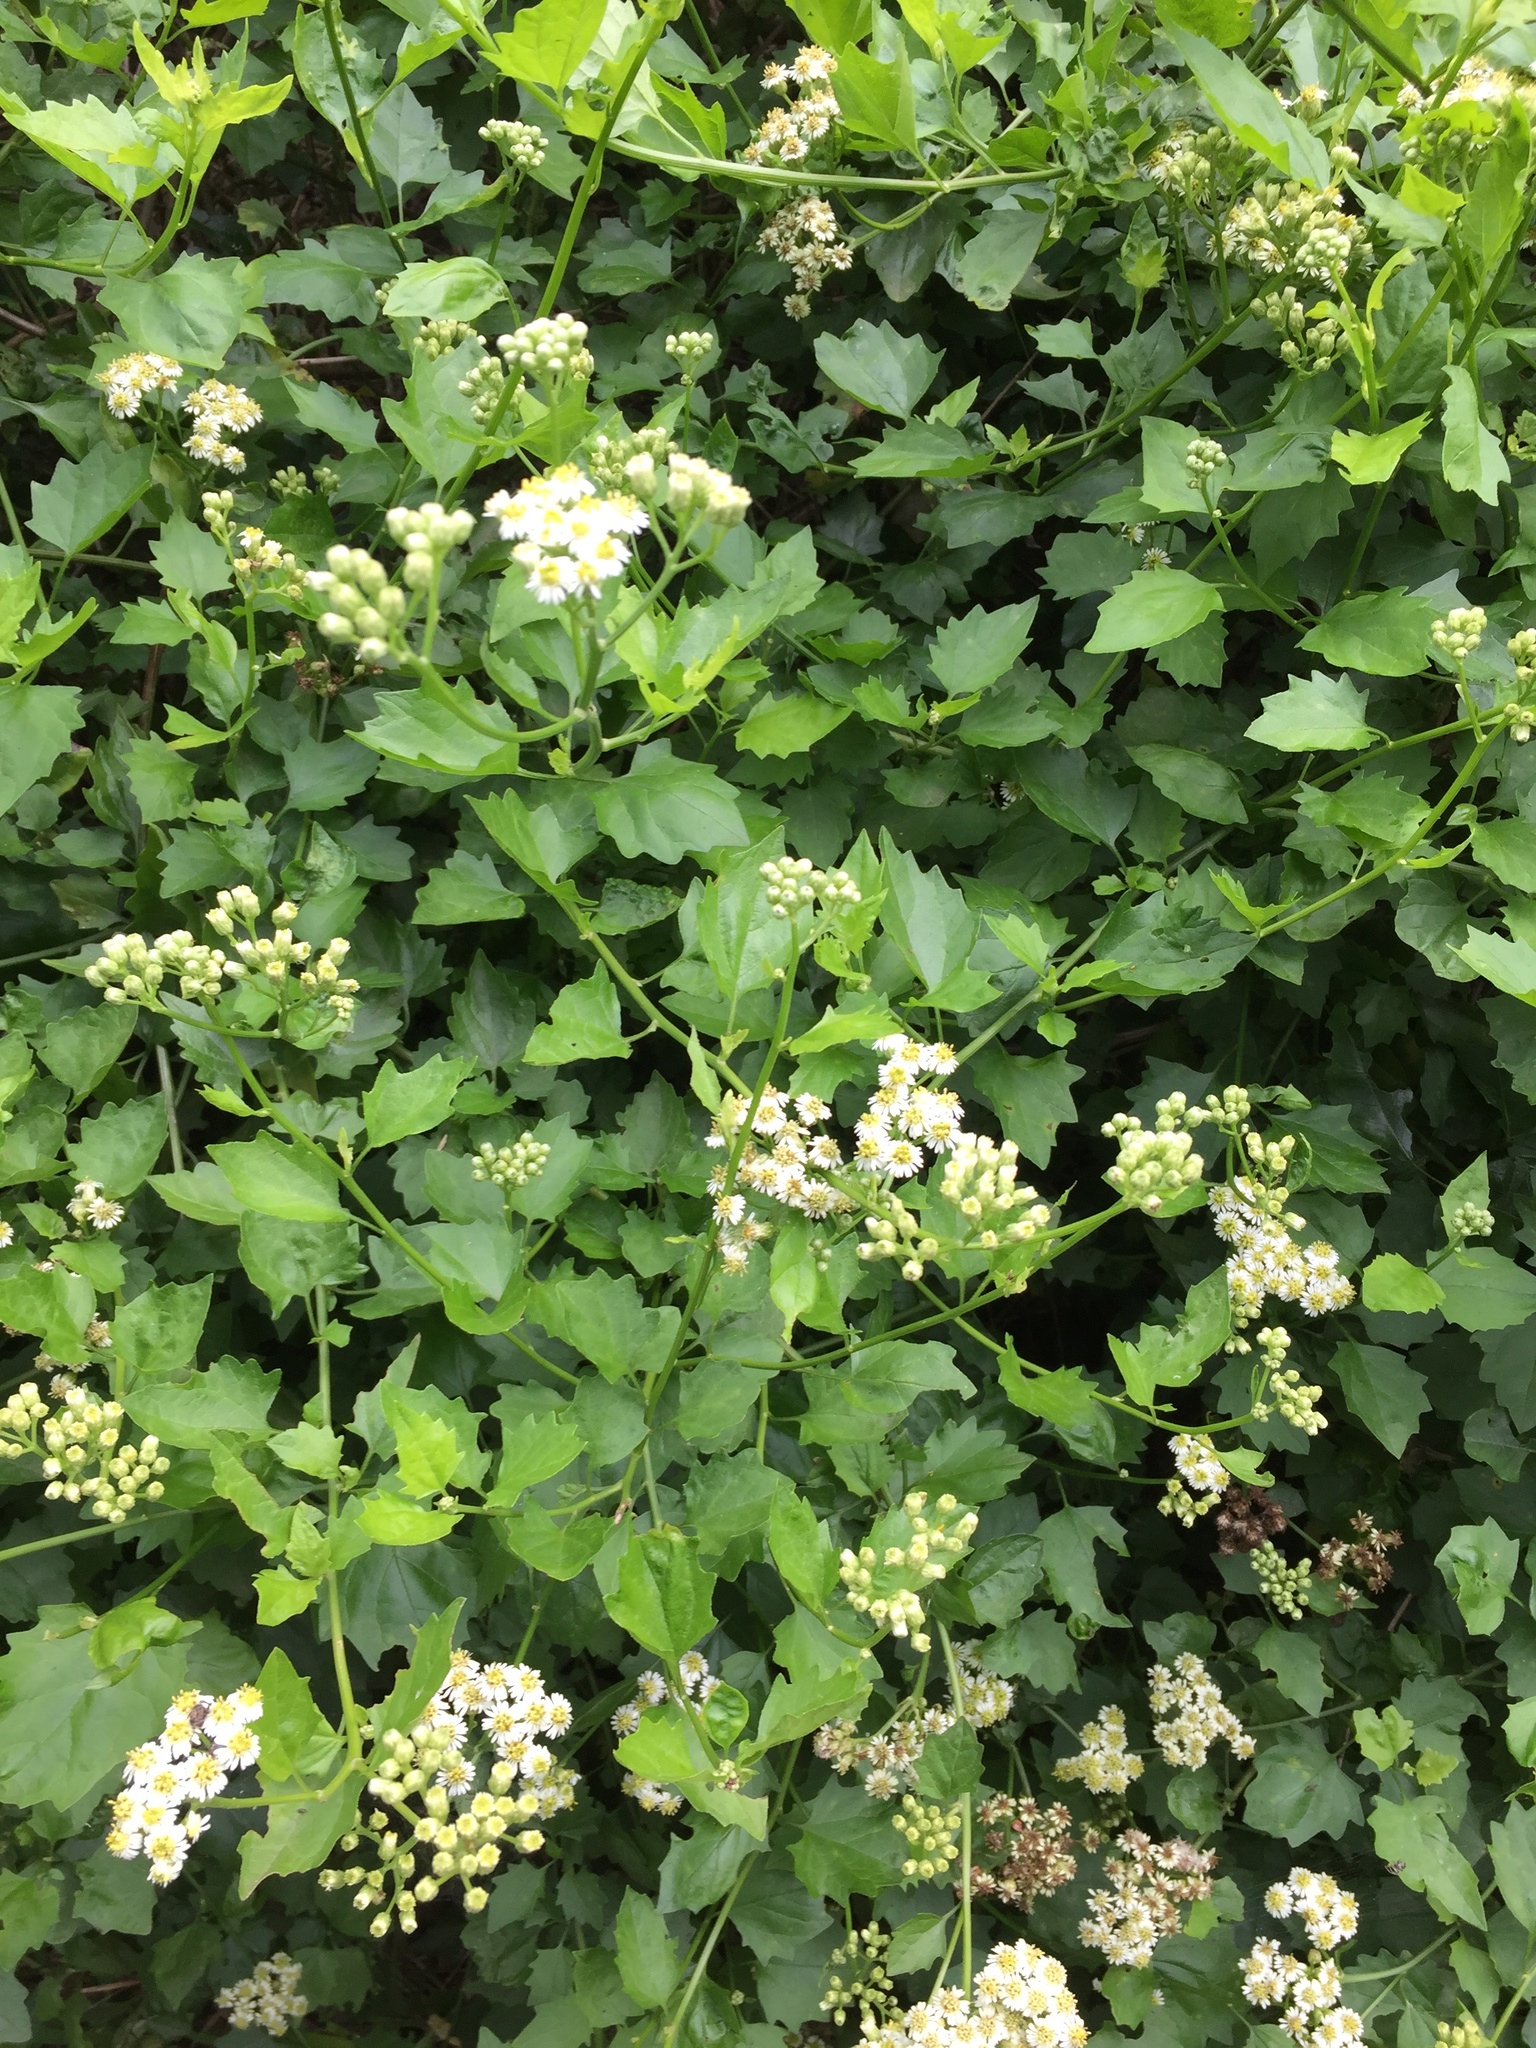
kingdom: Plantae
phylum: Tracheophyta
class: Magnoliopsida
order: Asterales
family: Asteraceae
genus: Microglossa
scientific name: Microglossa mespilifolia
